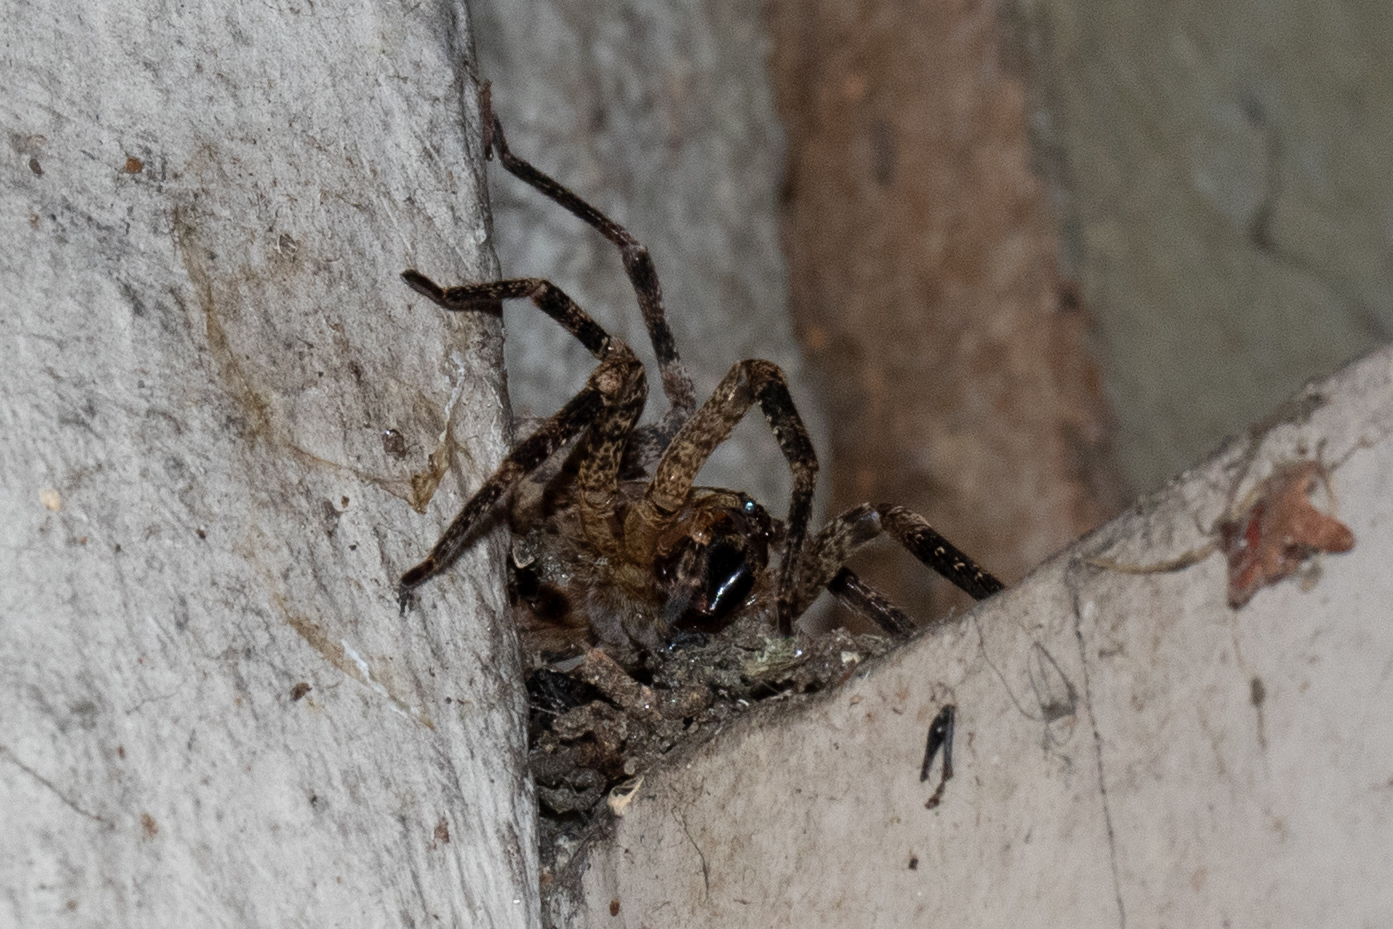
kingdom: Animalia
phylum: Arthropoda
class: Arachnida
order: Araneae
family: Zoropsidae
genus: Zoropsis
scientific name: Zoropsis spinimana
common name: Zoropsid spider
